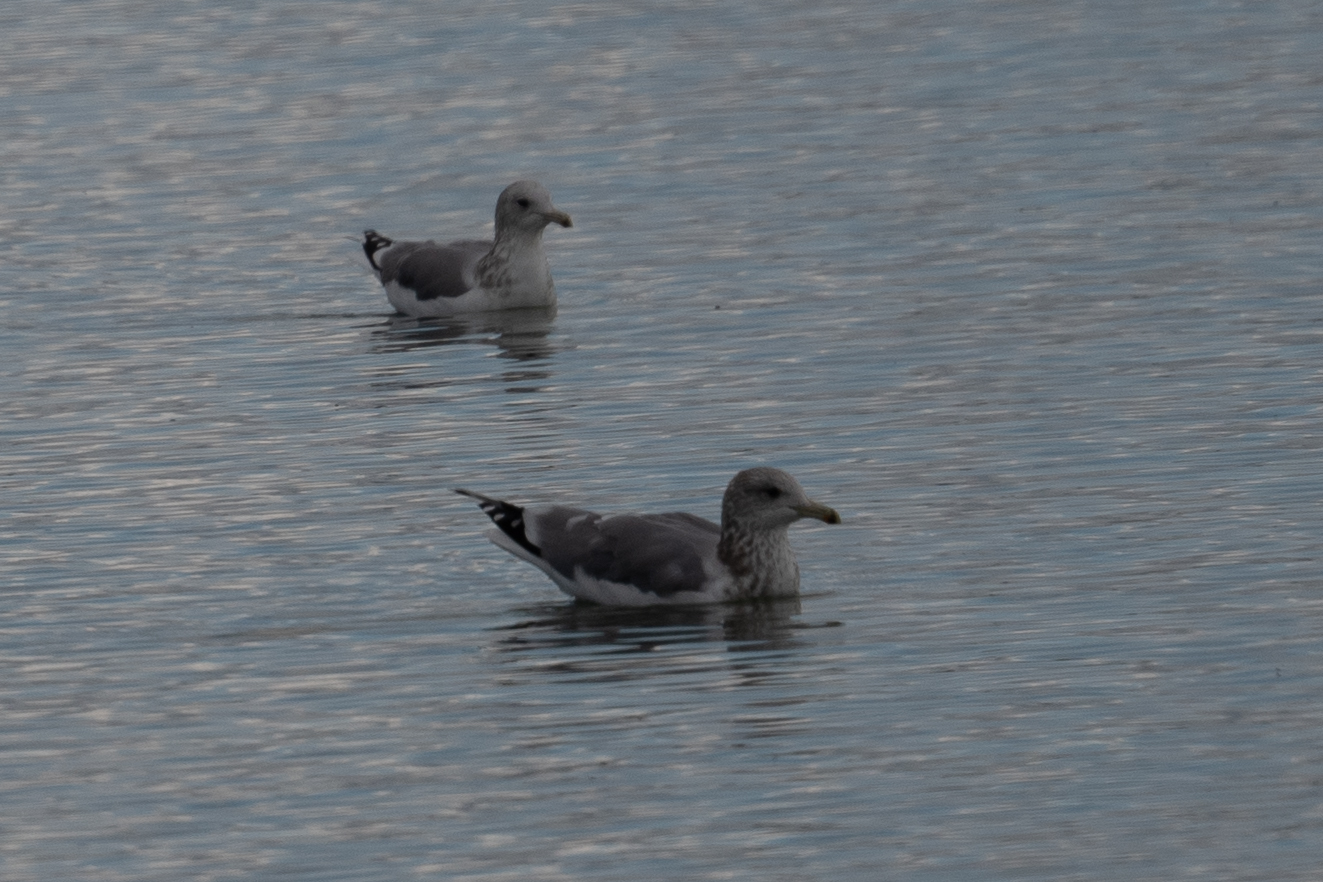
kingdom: Animalia
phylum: Chordata
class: Aves
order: Charadriiformes
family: Laridae
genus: Larus
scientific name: Larus californicus
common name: California gull
